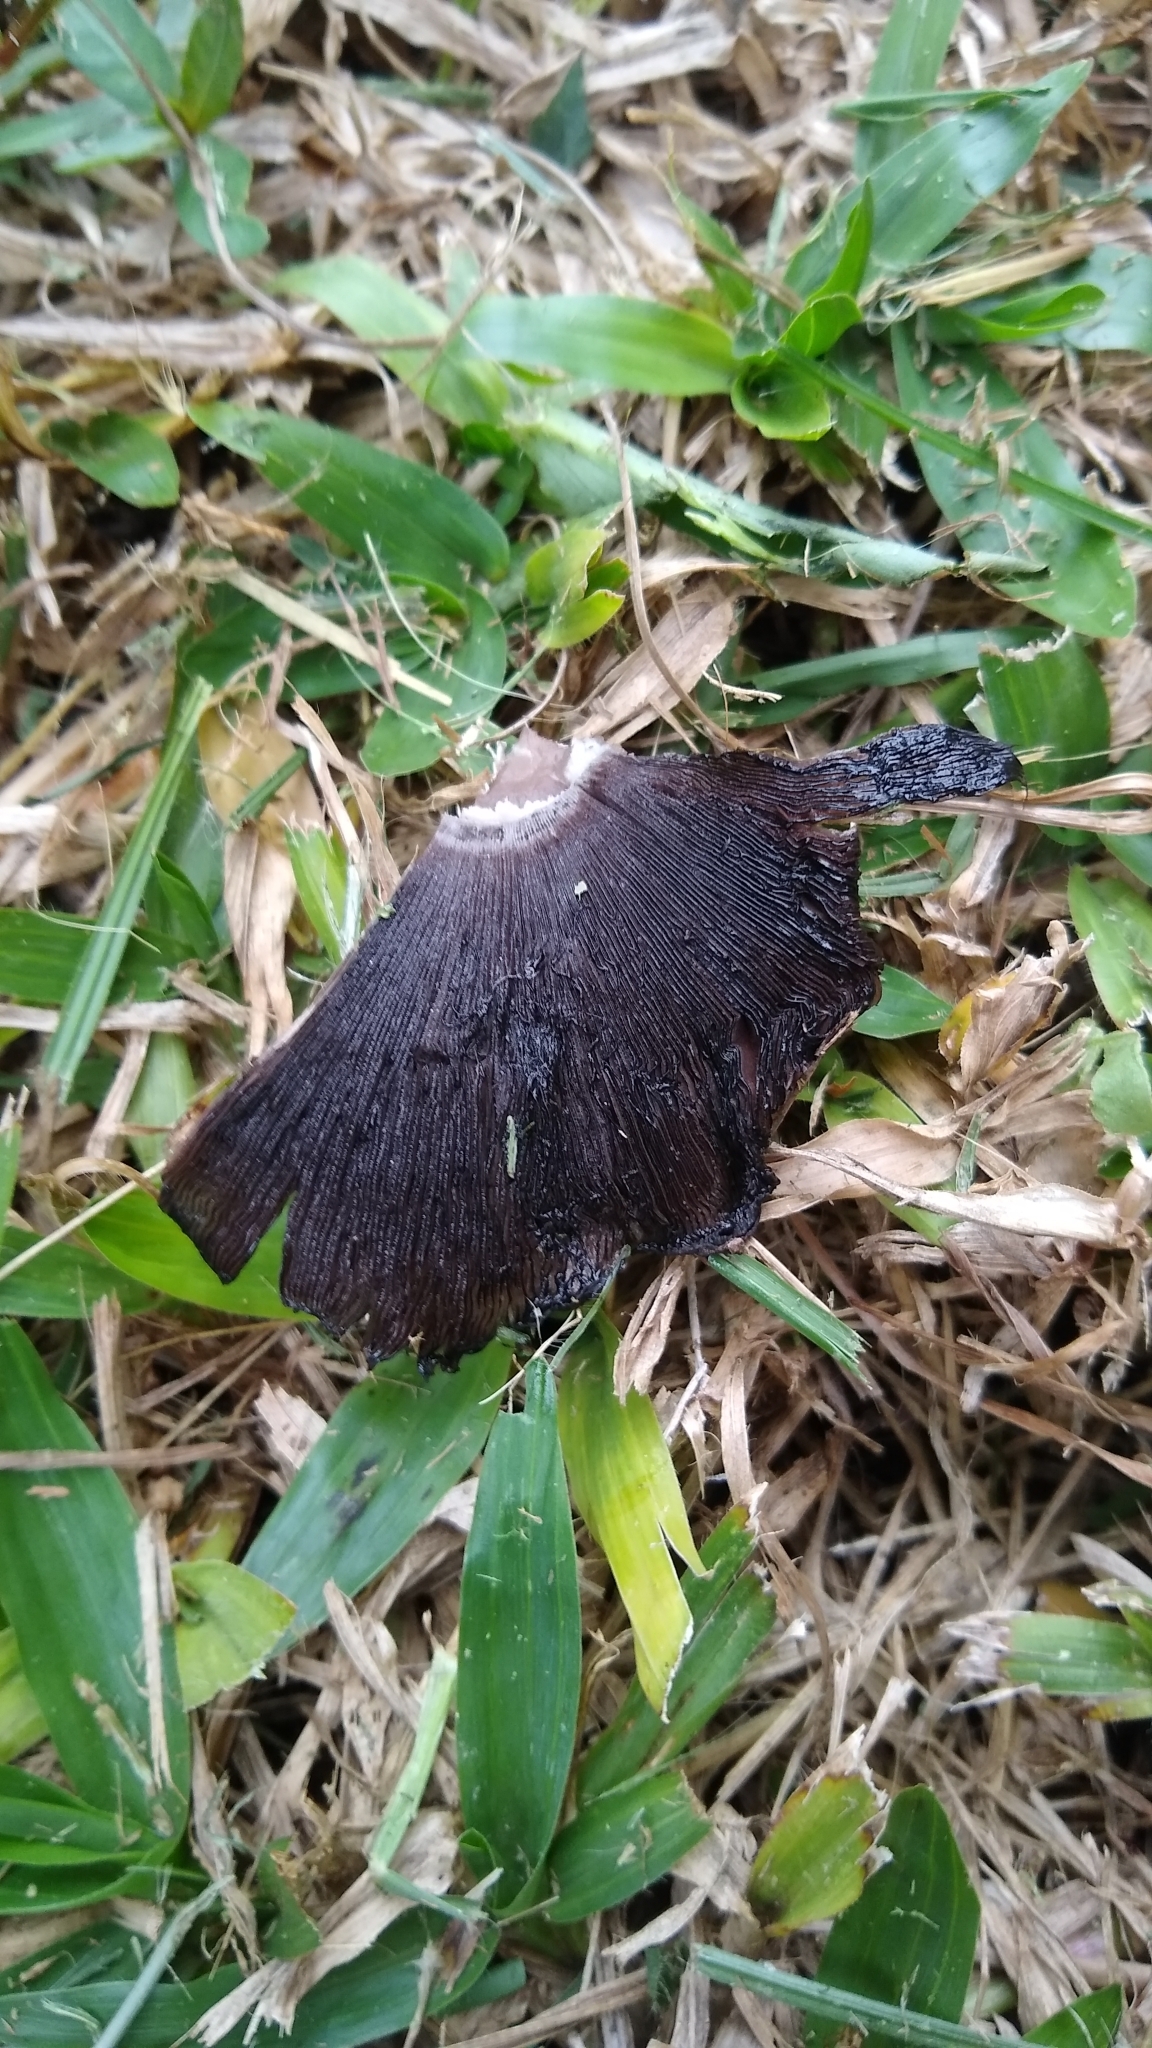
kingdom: Fungi
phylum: Basidiomycota
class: Agaricomycetes
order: Agaricales
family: Psathyrellaceae
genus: Coprinopsis
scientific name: Coprinopsis romagnesiana
